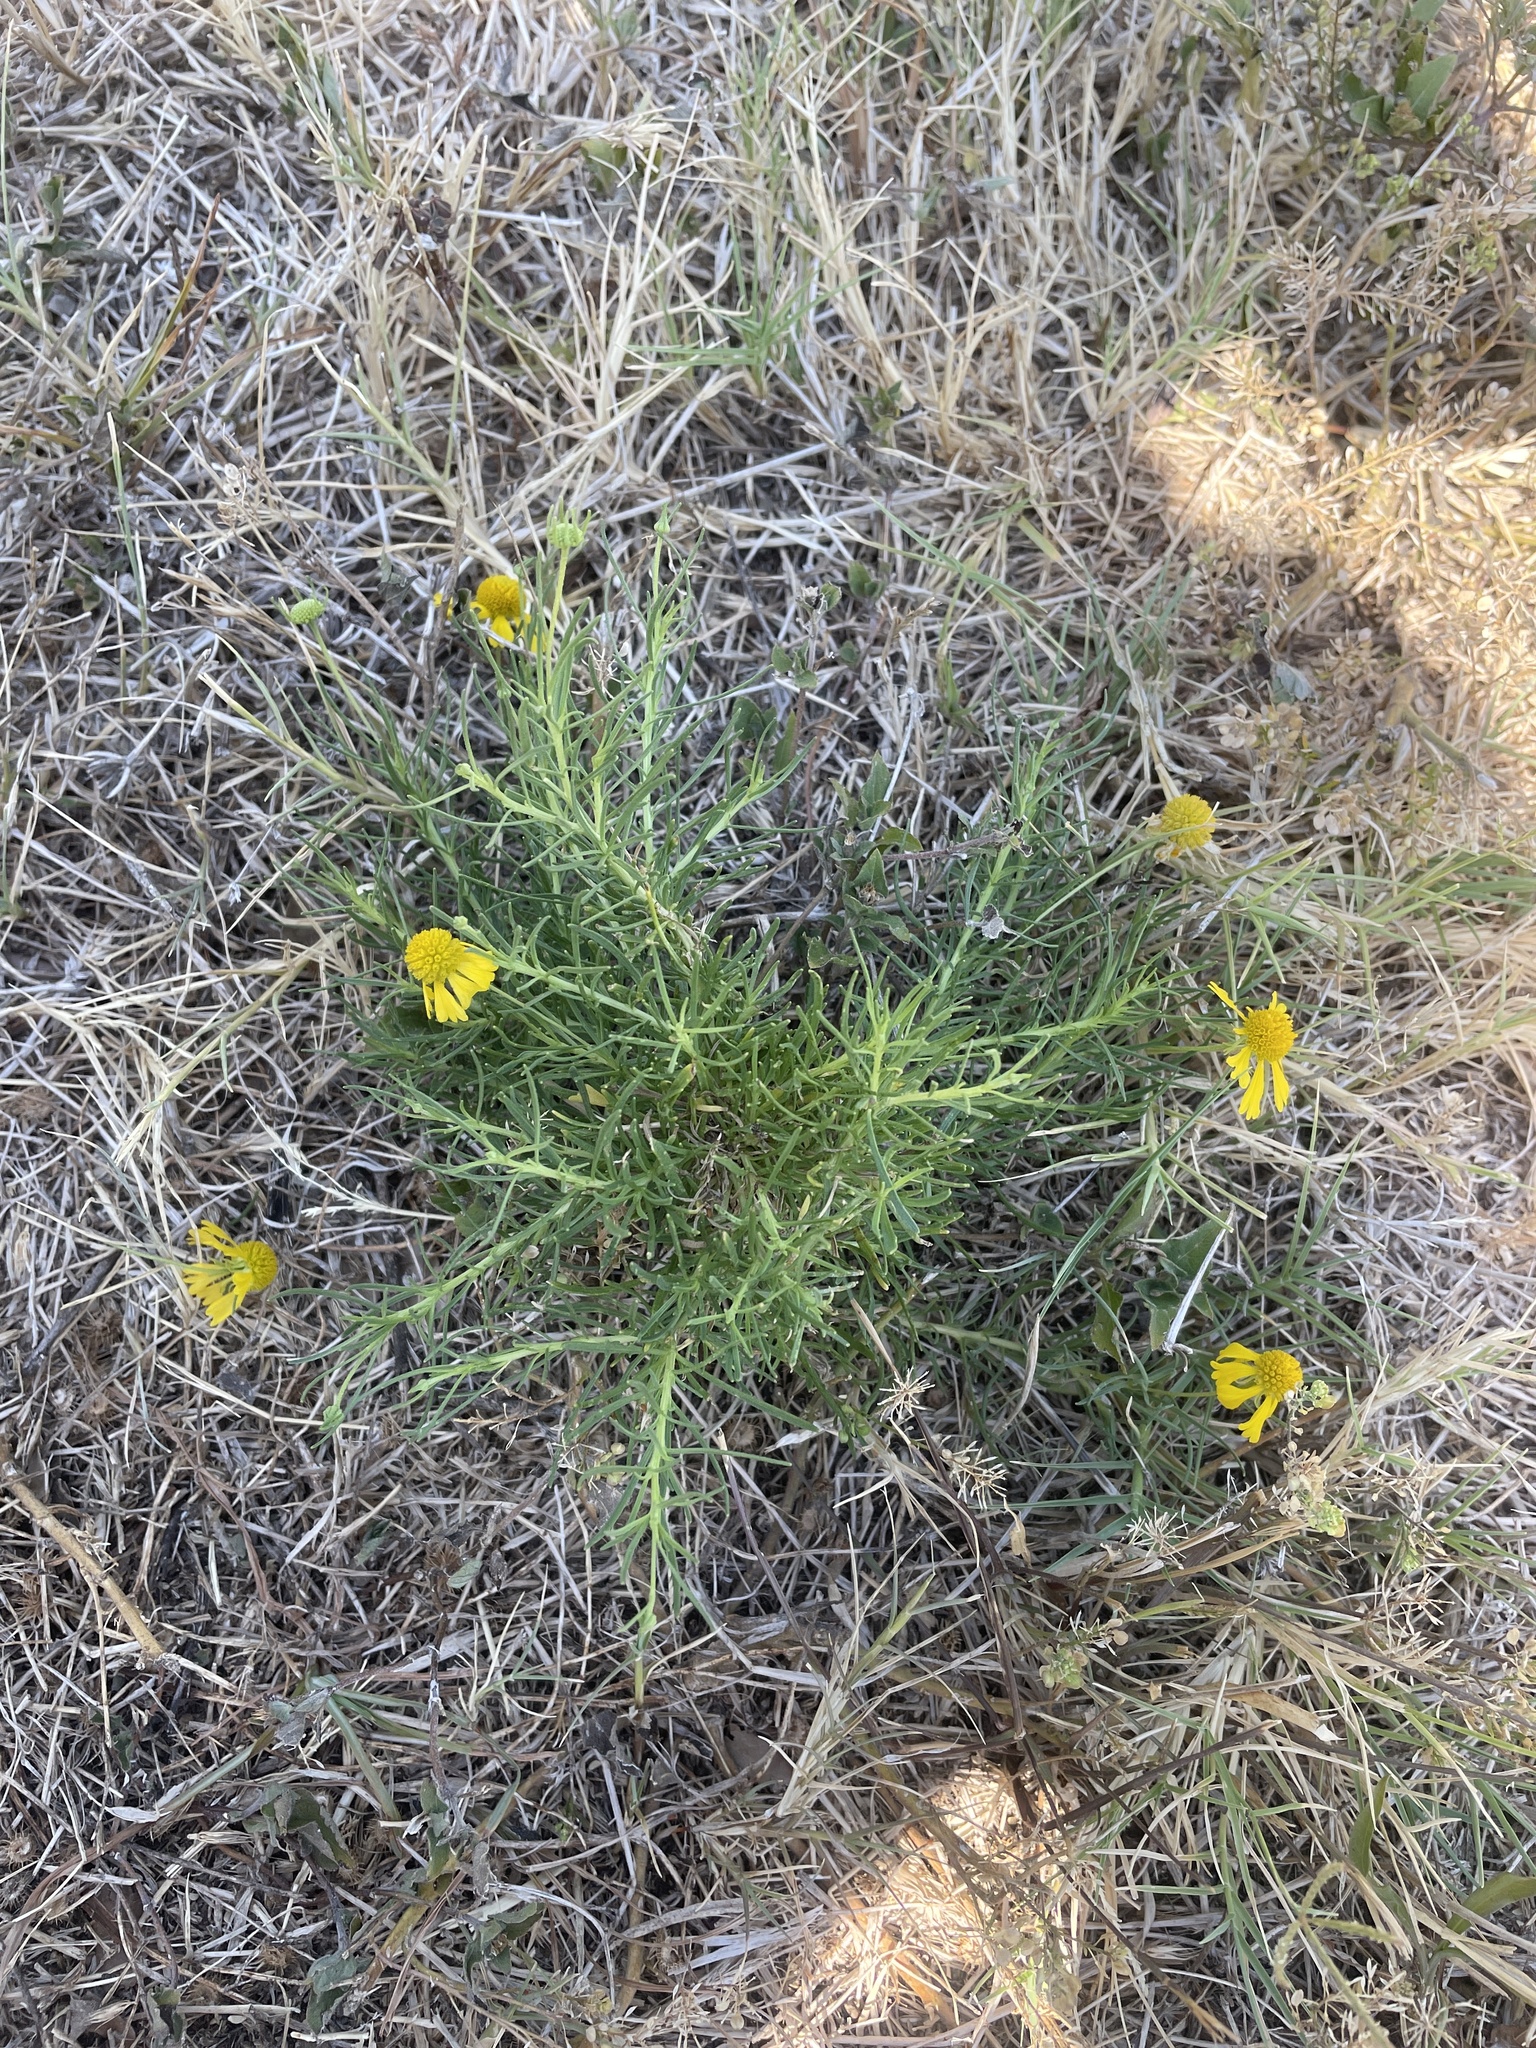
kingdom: Plantae
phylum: Tracheophyta
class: Magnoliopsida
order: Asterales
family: Asteraceae
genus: Helenium
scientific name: Helenium amarum
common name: Bitter sneezeweed
